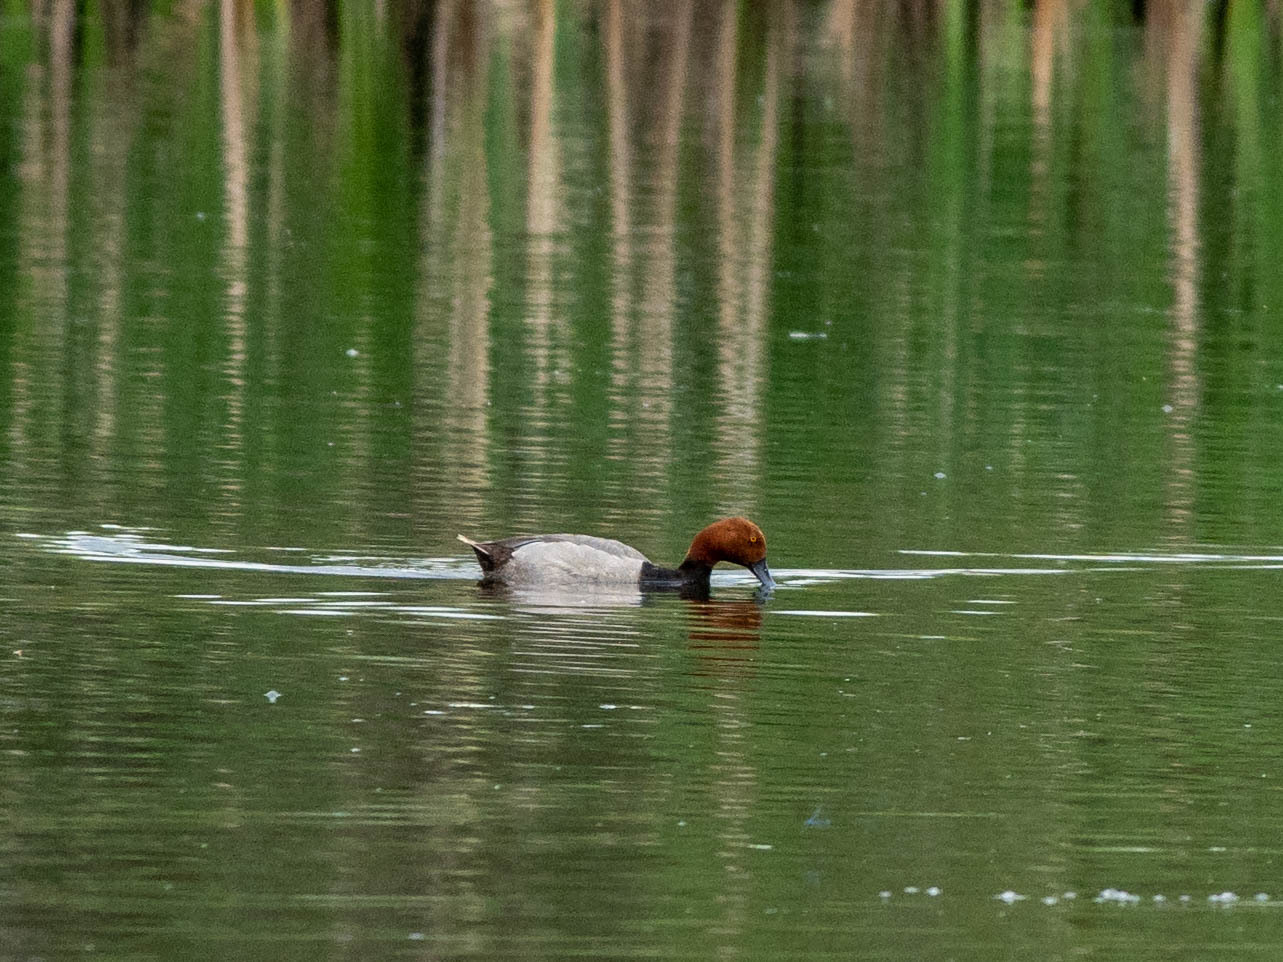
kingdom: Animalia
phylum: Chordata
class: Aves
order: Anseriformes
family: Anatidae
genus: Aythya
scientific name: Aythya americana
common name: Redhead
